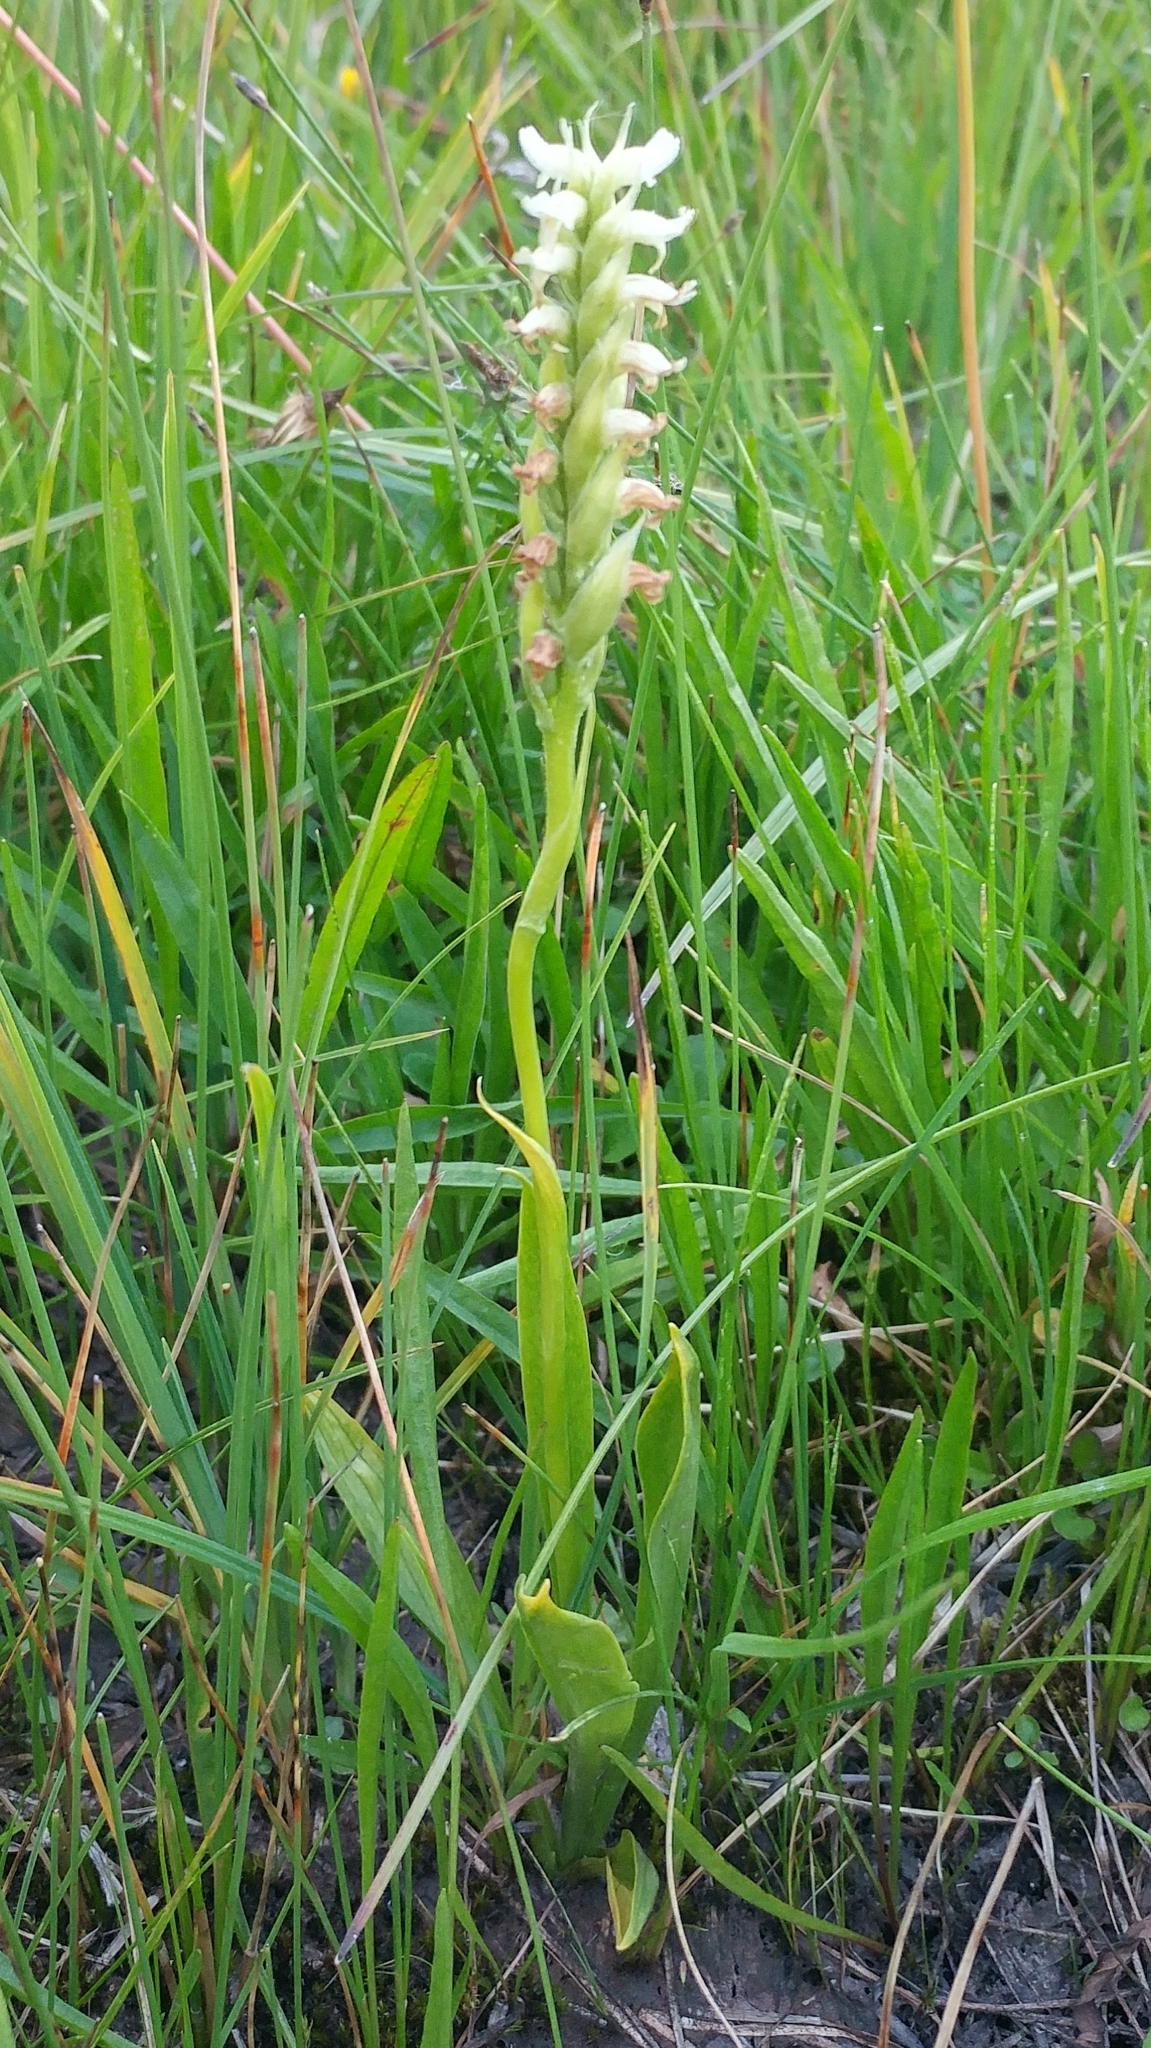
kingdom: Plantae
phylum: Tracheophyta
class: Liliopsida
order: Asparagales
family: Orchidaceae
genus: Spiranthes
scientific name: Spiranthes romanzoffiana
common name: Irish lady's-tresses
